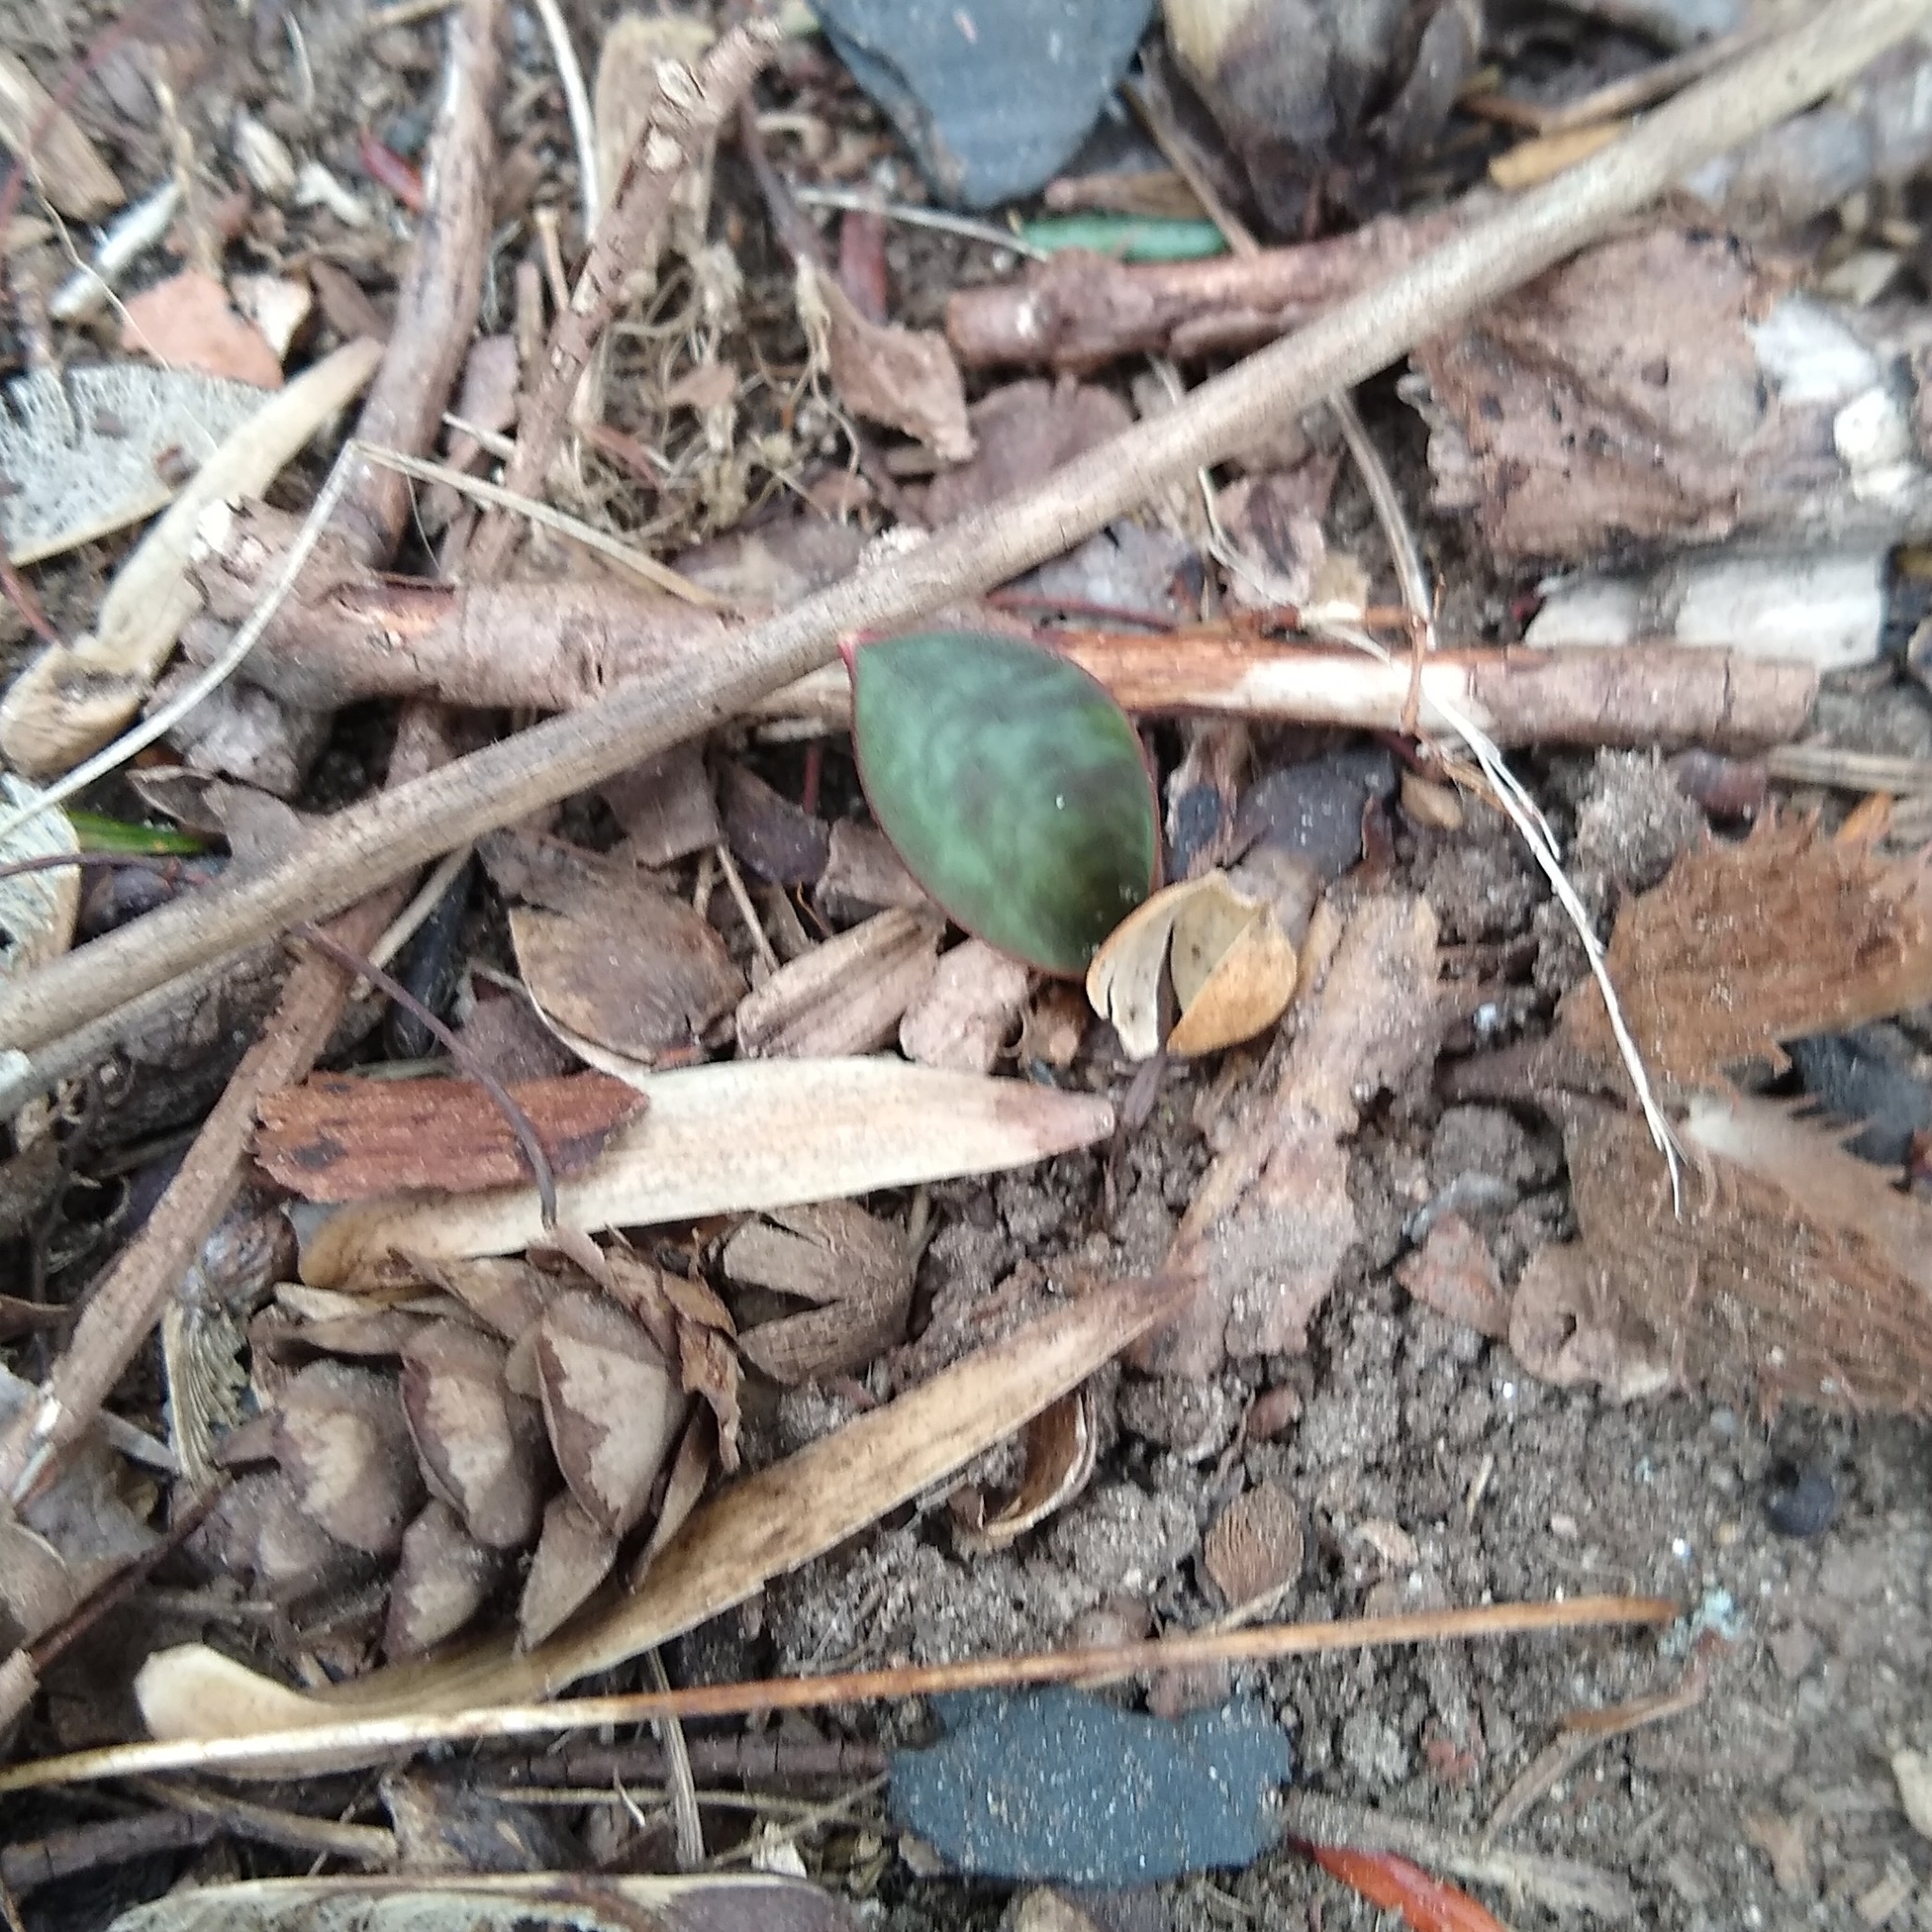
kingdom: Plantae
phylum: Tracheophyta
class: Liliopsida
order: Liliales
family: Liliaceae
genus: Erythronium
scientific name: Erythronium americanum
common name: Yellow adder's-tongue
